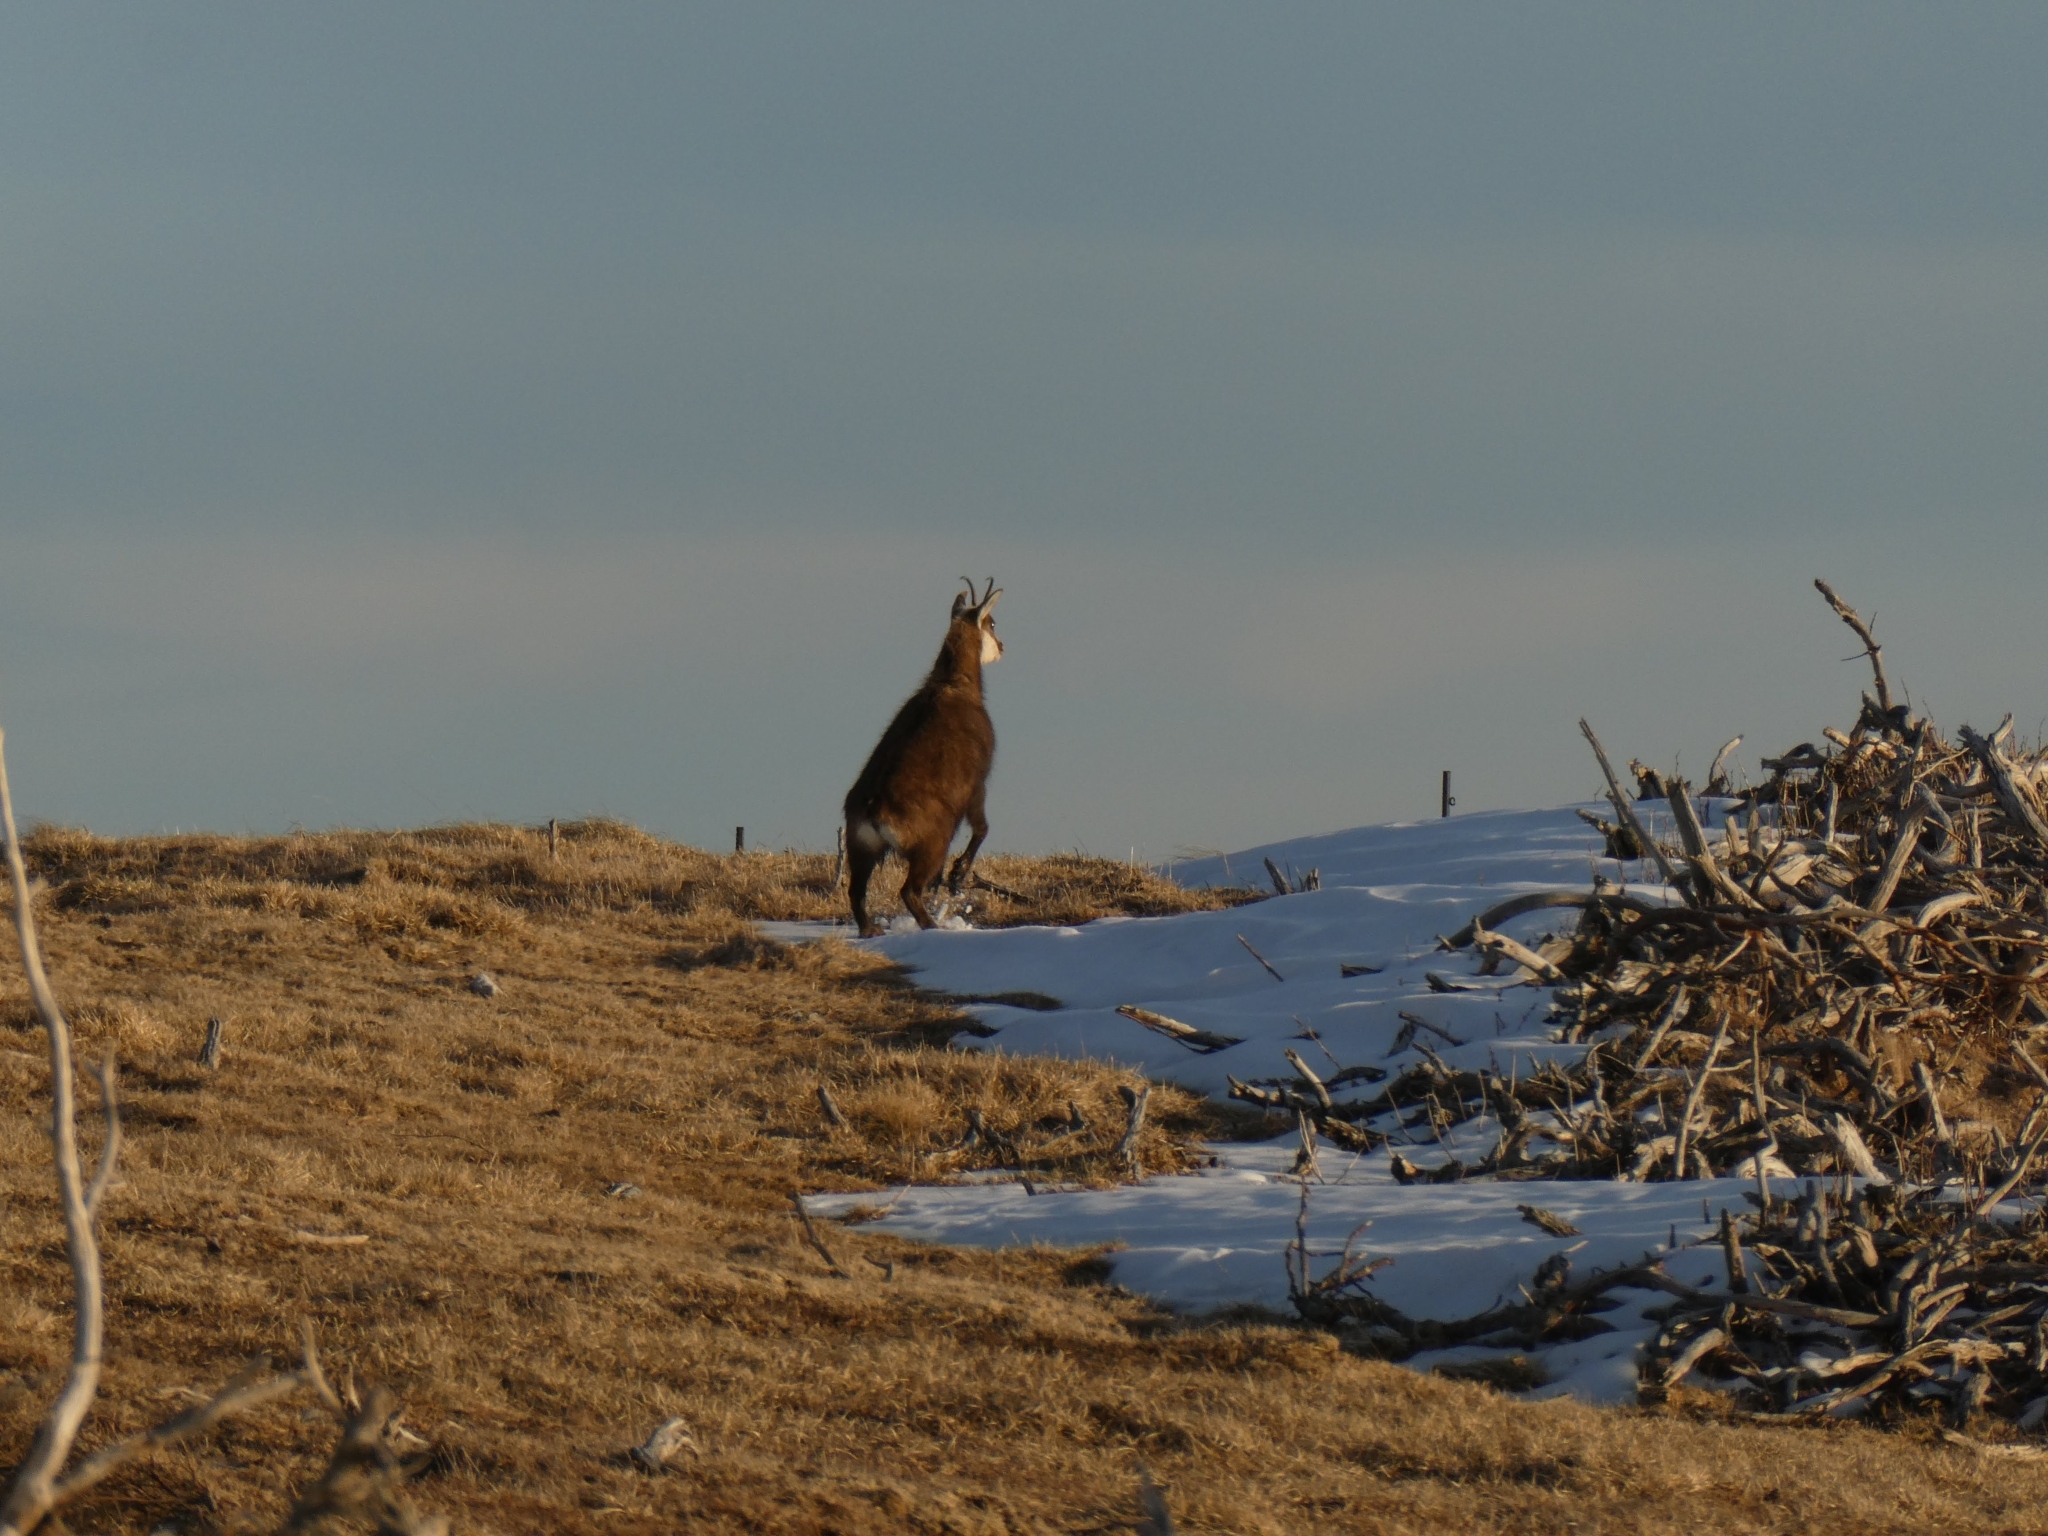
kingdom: Animalia
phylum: Chordata
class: Mammalia
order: Artiodactyla
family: Bovidae
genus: Rupicapra
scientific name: Rupicapra rupicapra
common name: Chamois
